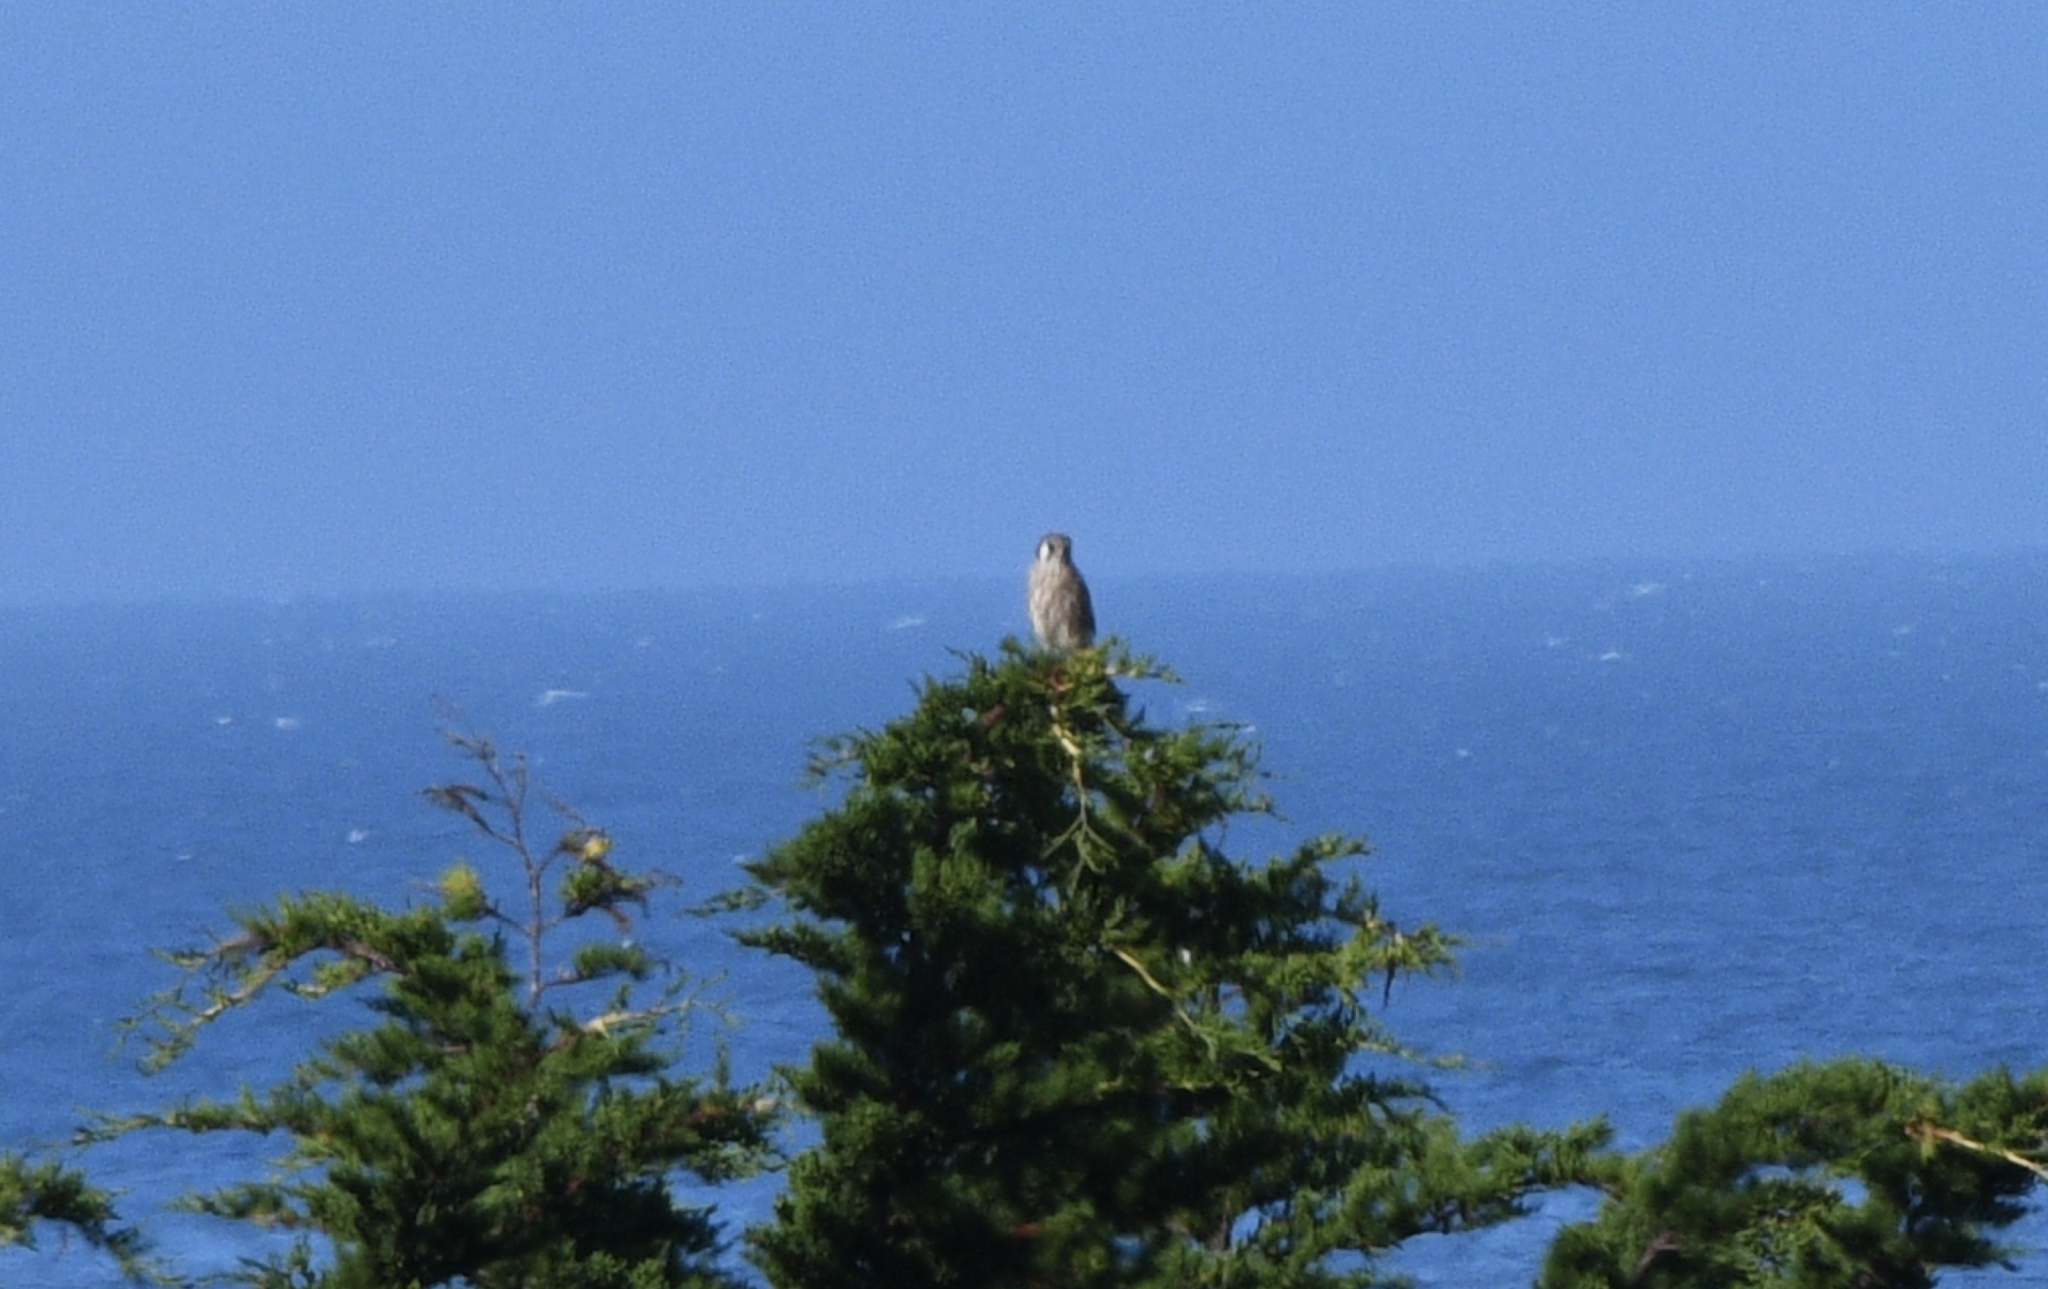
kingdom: Animalia
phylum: Chordata
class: Aves
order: Falconiformes
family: Falconidae
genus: Falco
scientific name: Falco sparverius
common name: American kestrel
